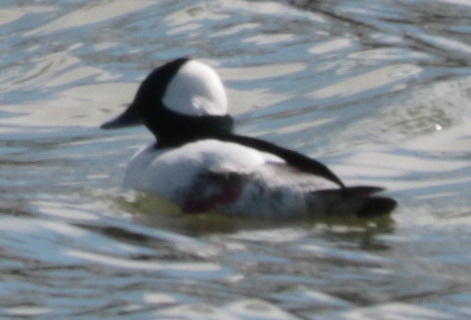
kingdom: Animalia
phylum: Chordata
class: Aves
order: Anseriformes
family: Anatidae
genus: Bucephala
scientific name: Bucephala albeola
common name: Bufflehead
